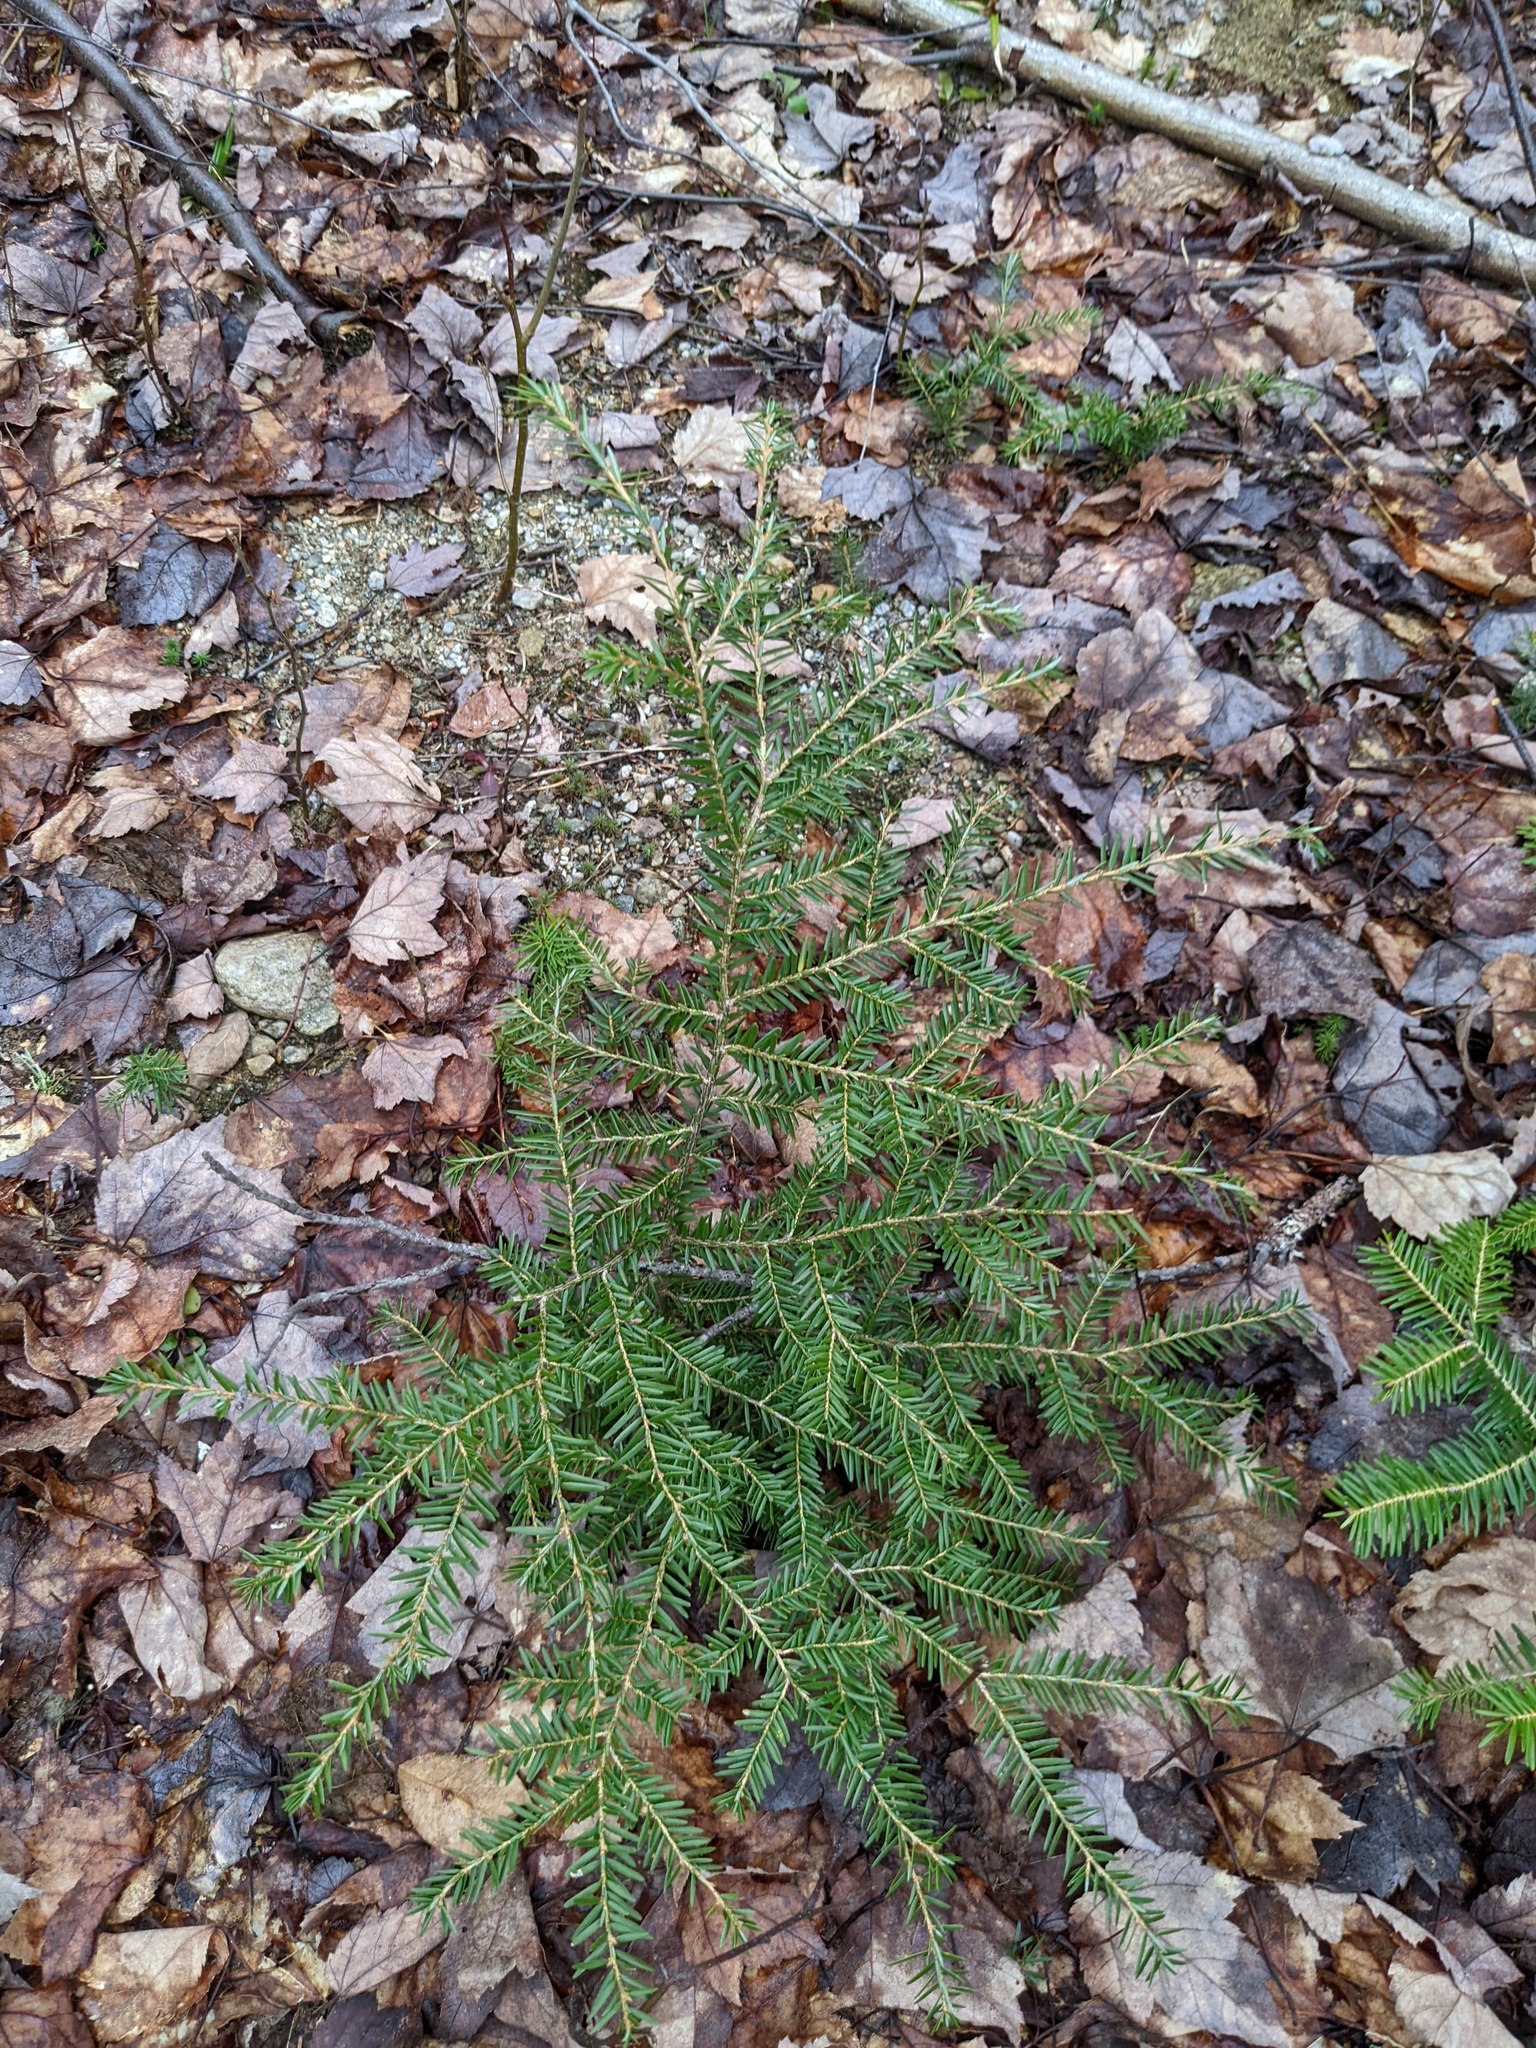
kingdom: Plantae
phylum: Tracheophyta
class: Pinopsida
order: Pinales
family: Pinaceae
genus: Tsuga
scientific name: Tsuga canadensis
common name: Eastern hemlock
